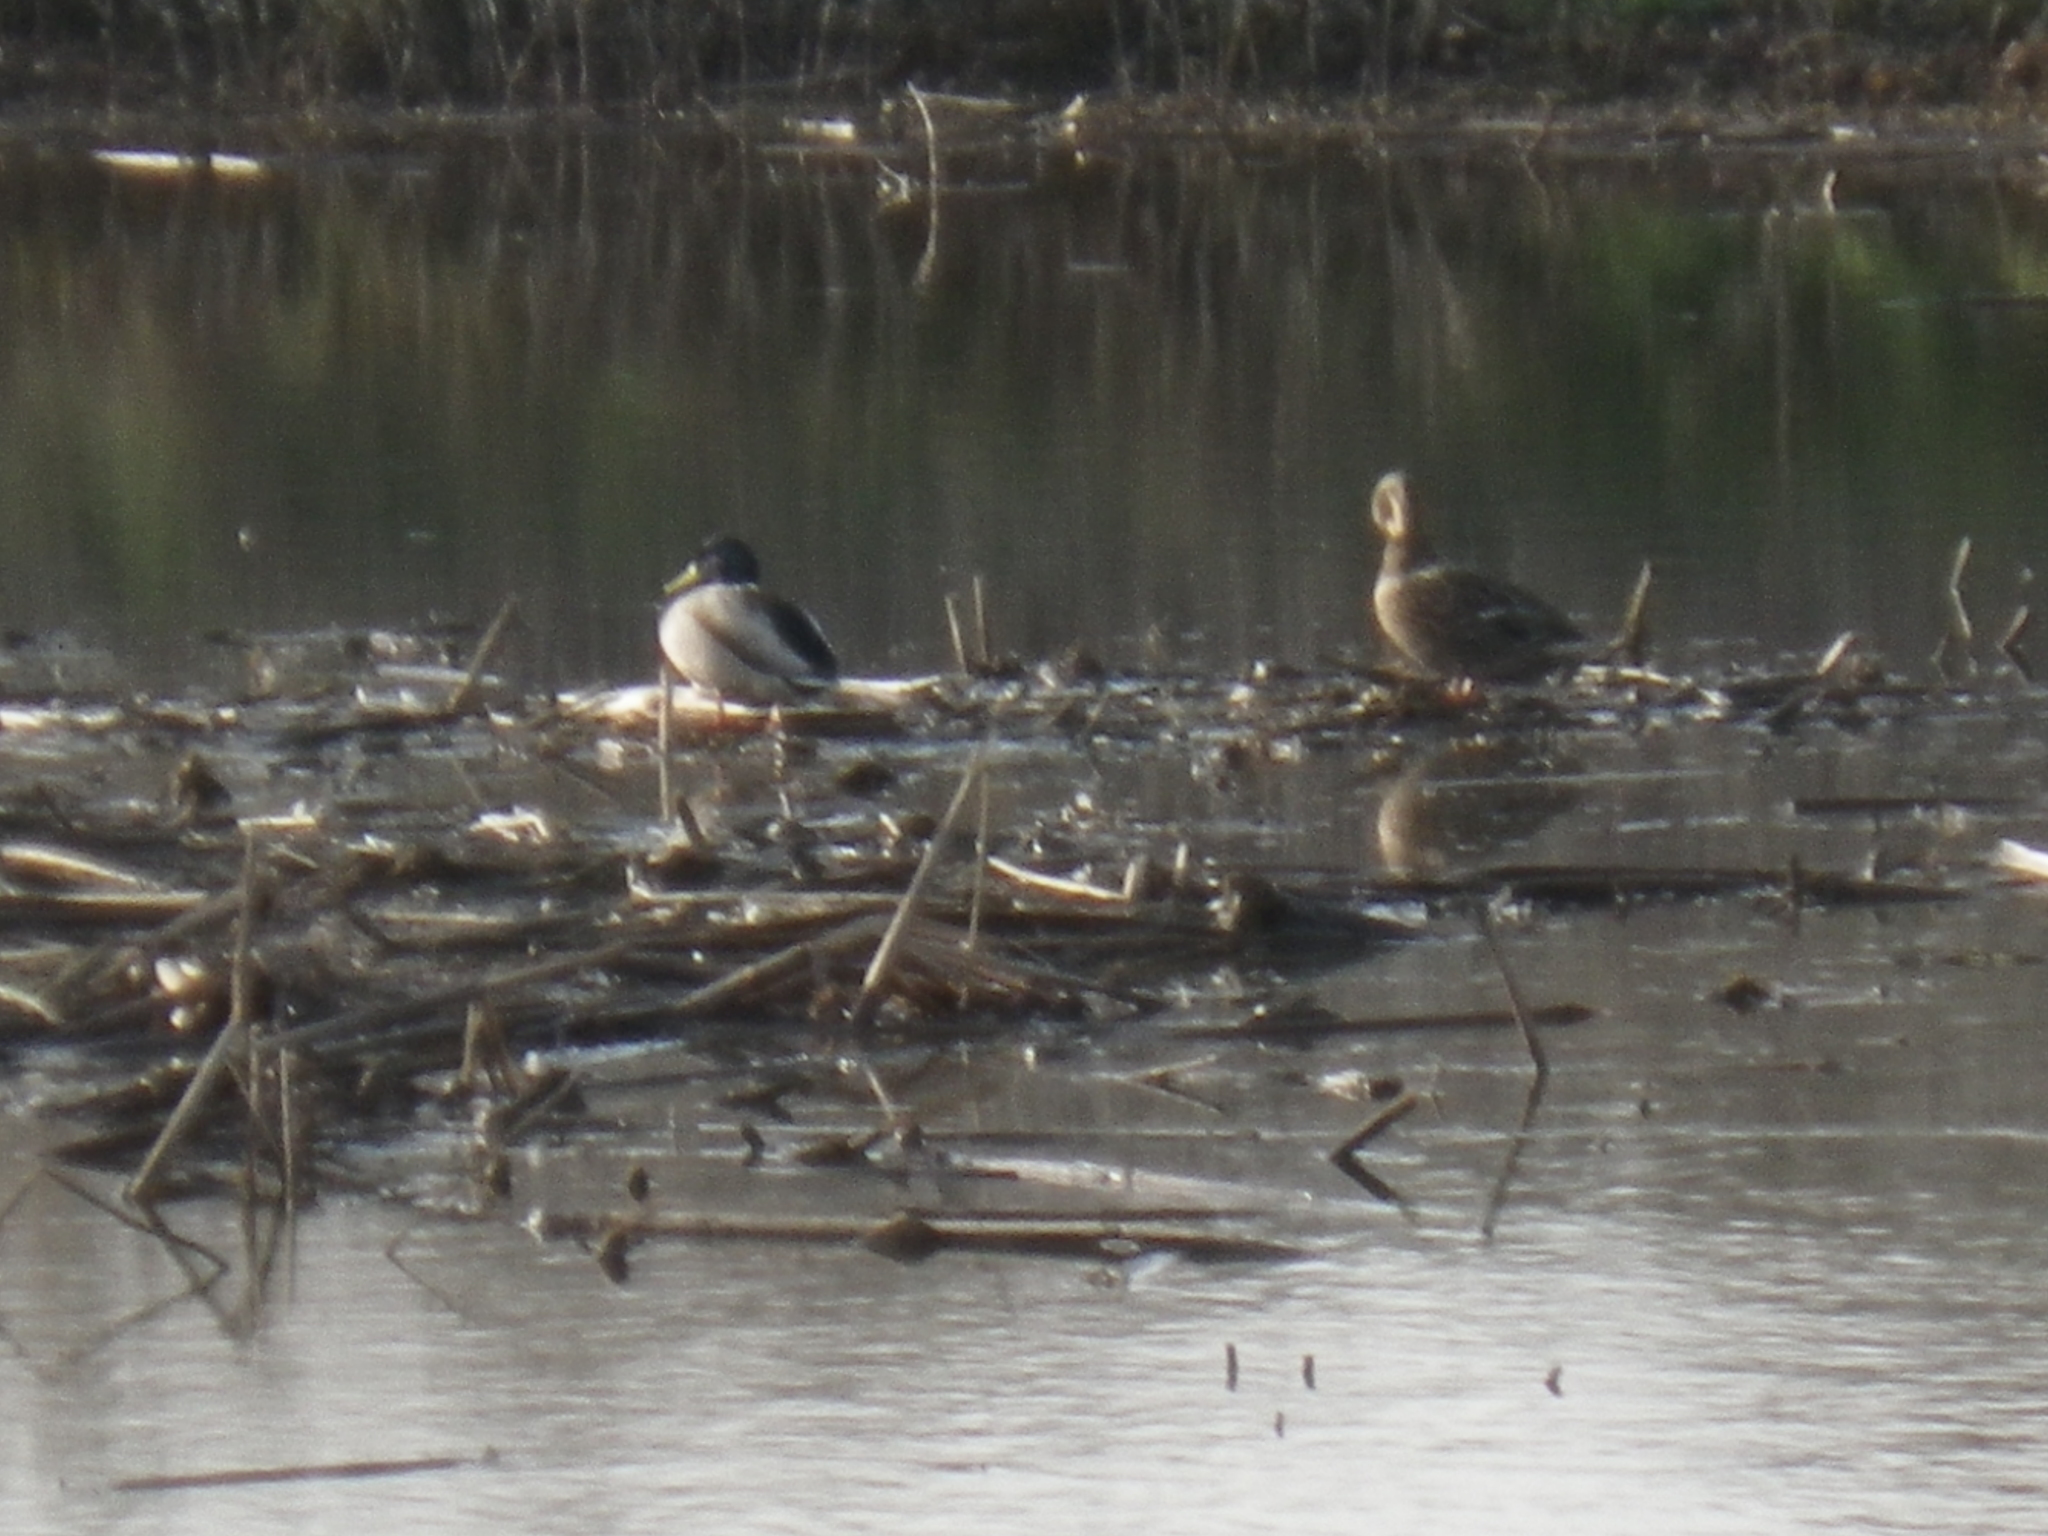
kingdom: Animalia
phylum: Chordata
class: Aves
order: Anseriformes
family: Anatidae
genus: Anas
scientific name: Anas platyrhynchos
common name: Mallard
